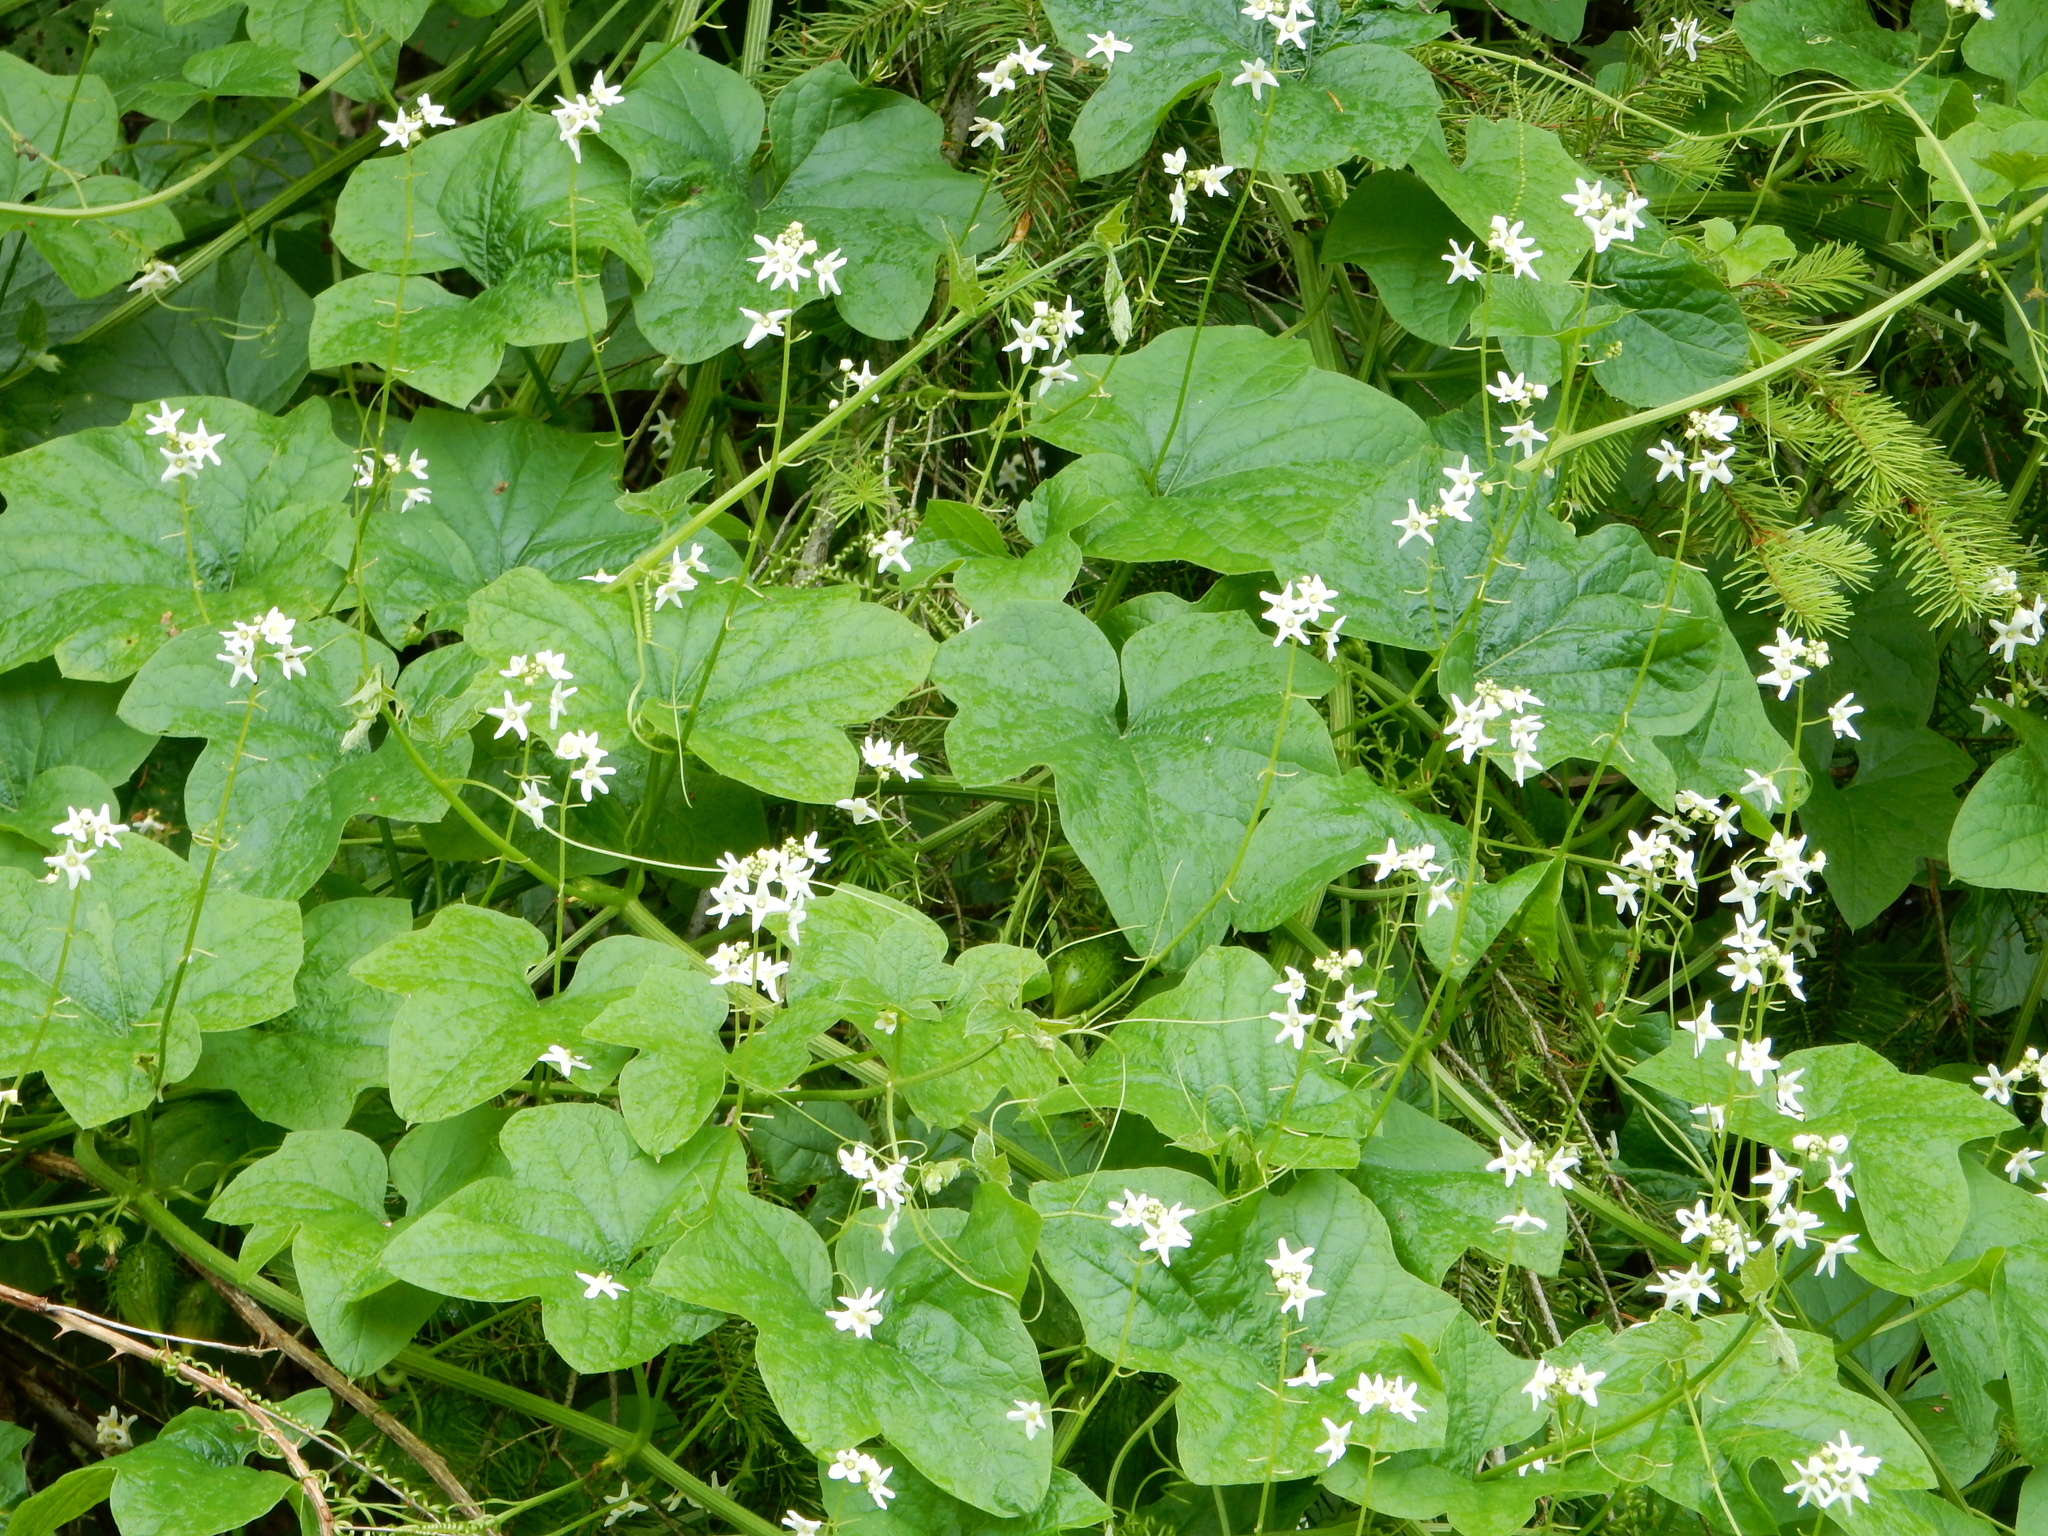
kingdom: Plantae
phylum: Tracheophyta
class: Magnoliopsida
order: Cucurbitales
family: Cucurbitaceae
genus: Marah
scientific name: Marah oregana
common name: Coastal manroot
